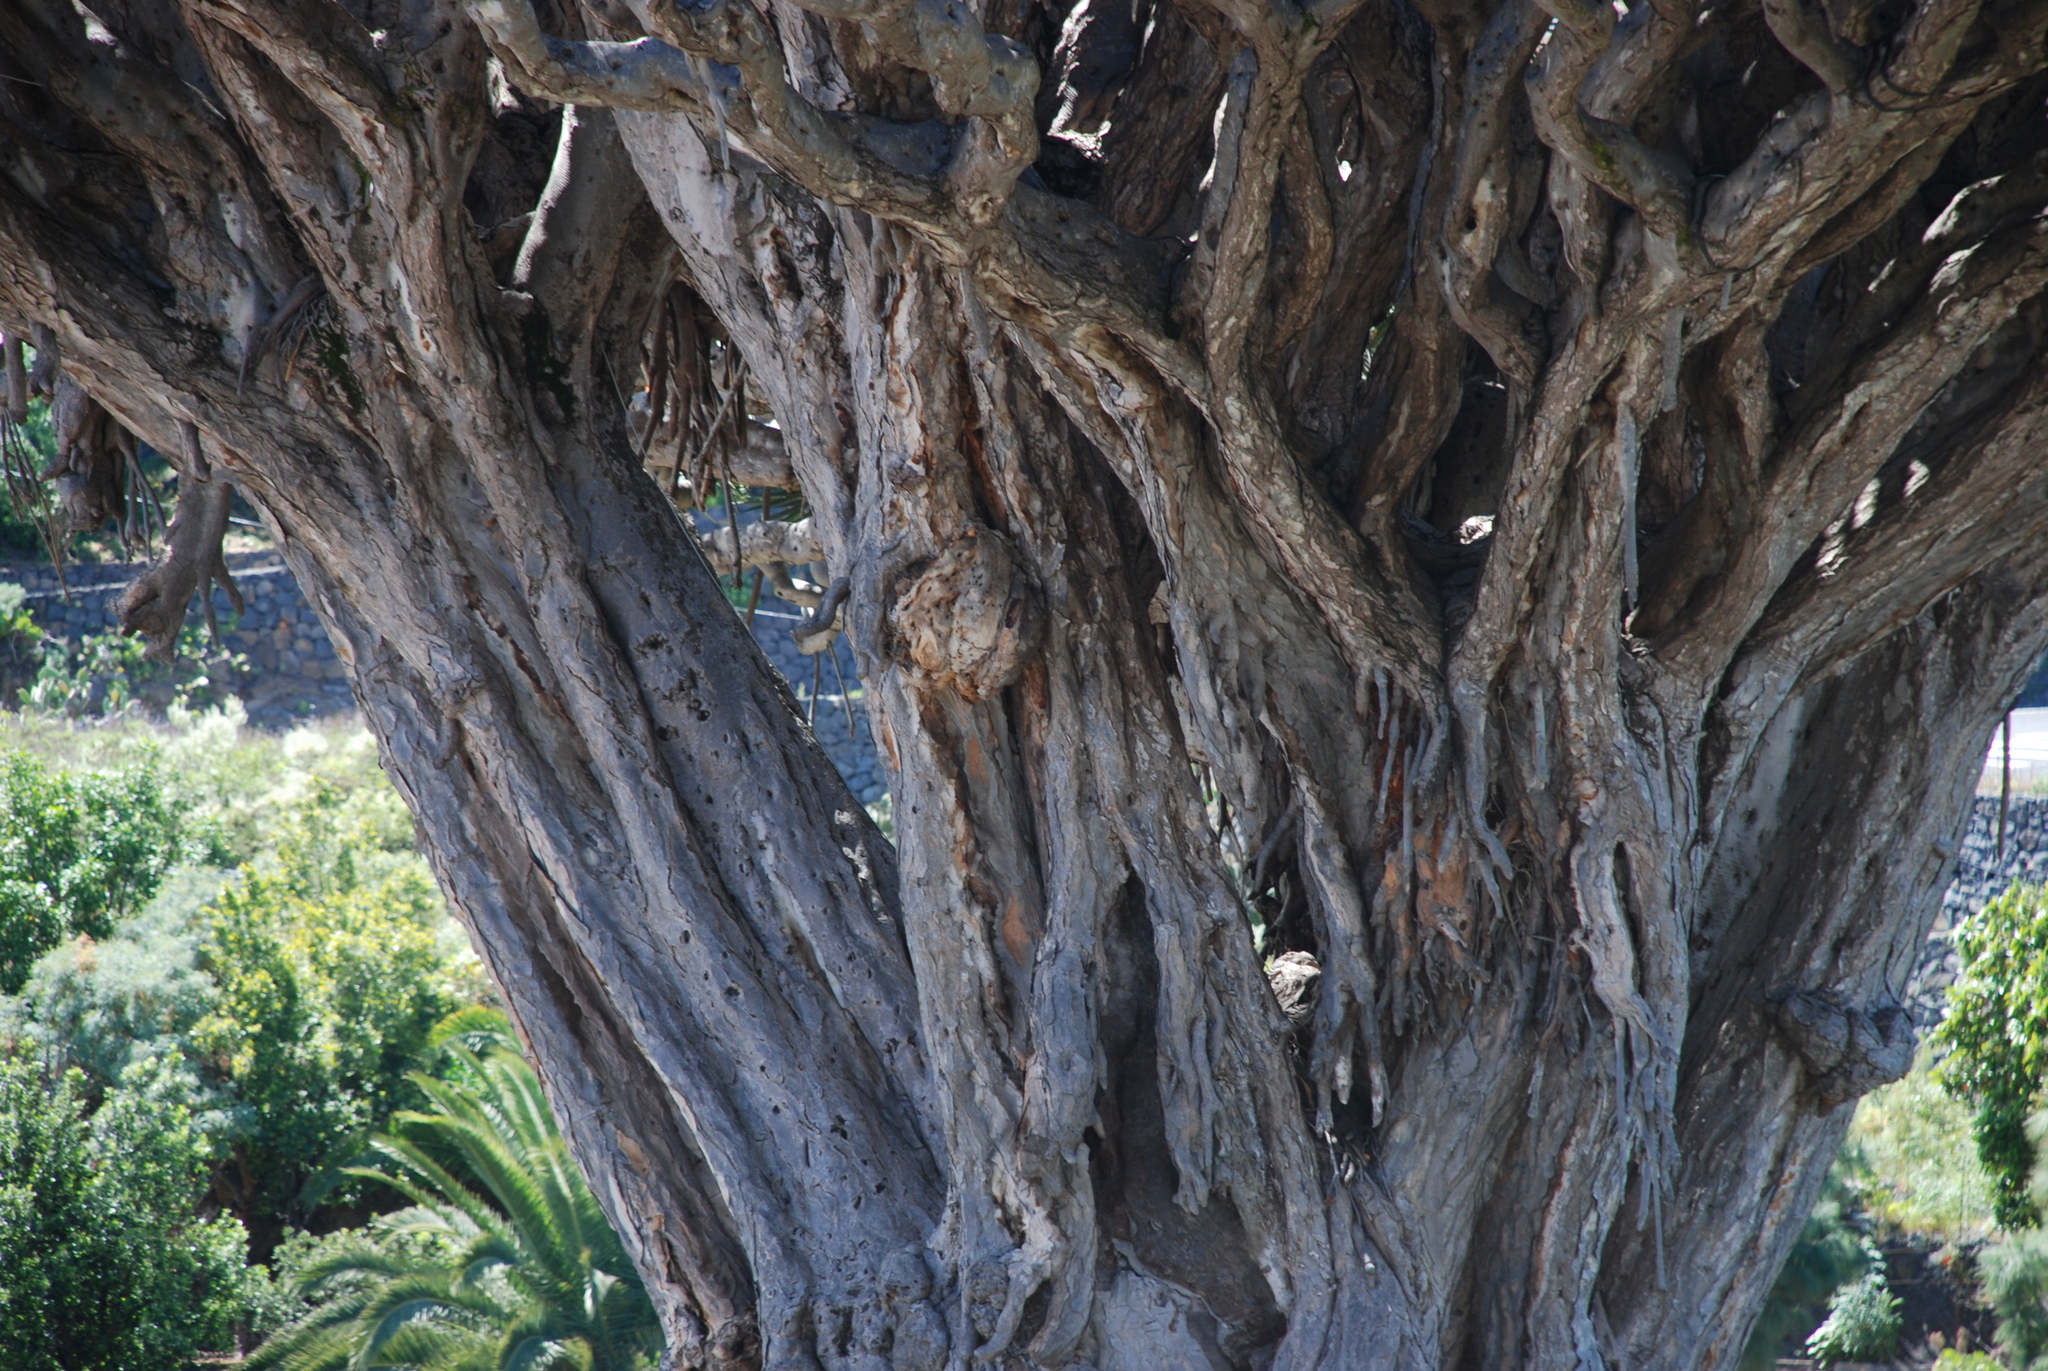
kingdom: Plantae
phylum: Tracheophyta
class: Liliopsida
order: Asparagales
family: Asparagaceae
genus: Dracaena
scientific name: Dracaena draco
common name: Canary island dragon tree
